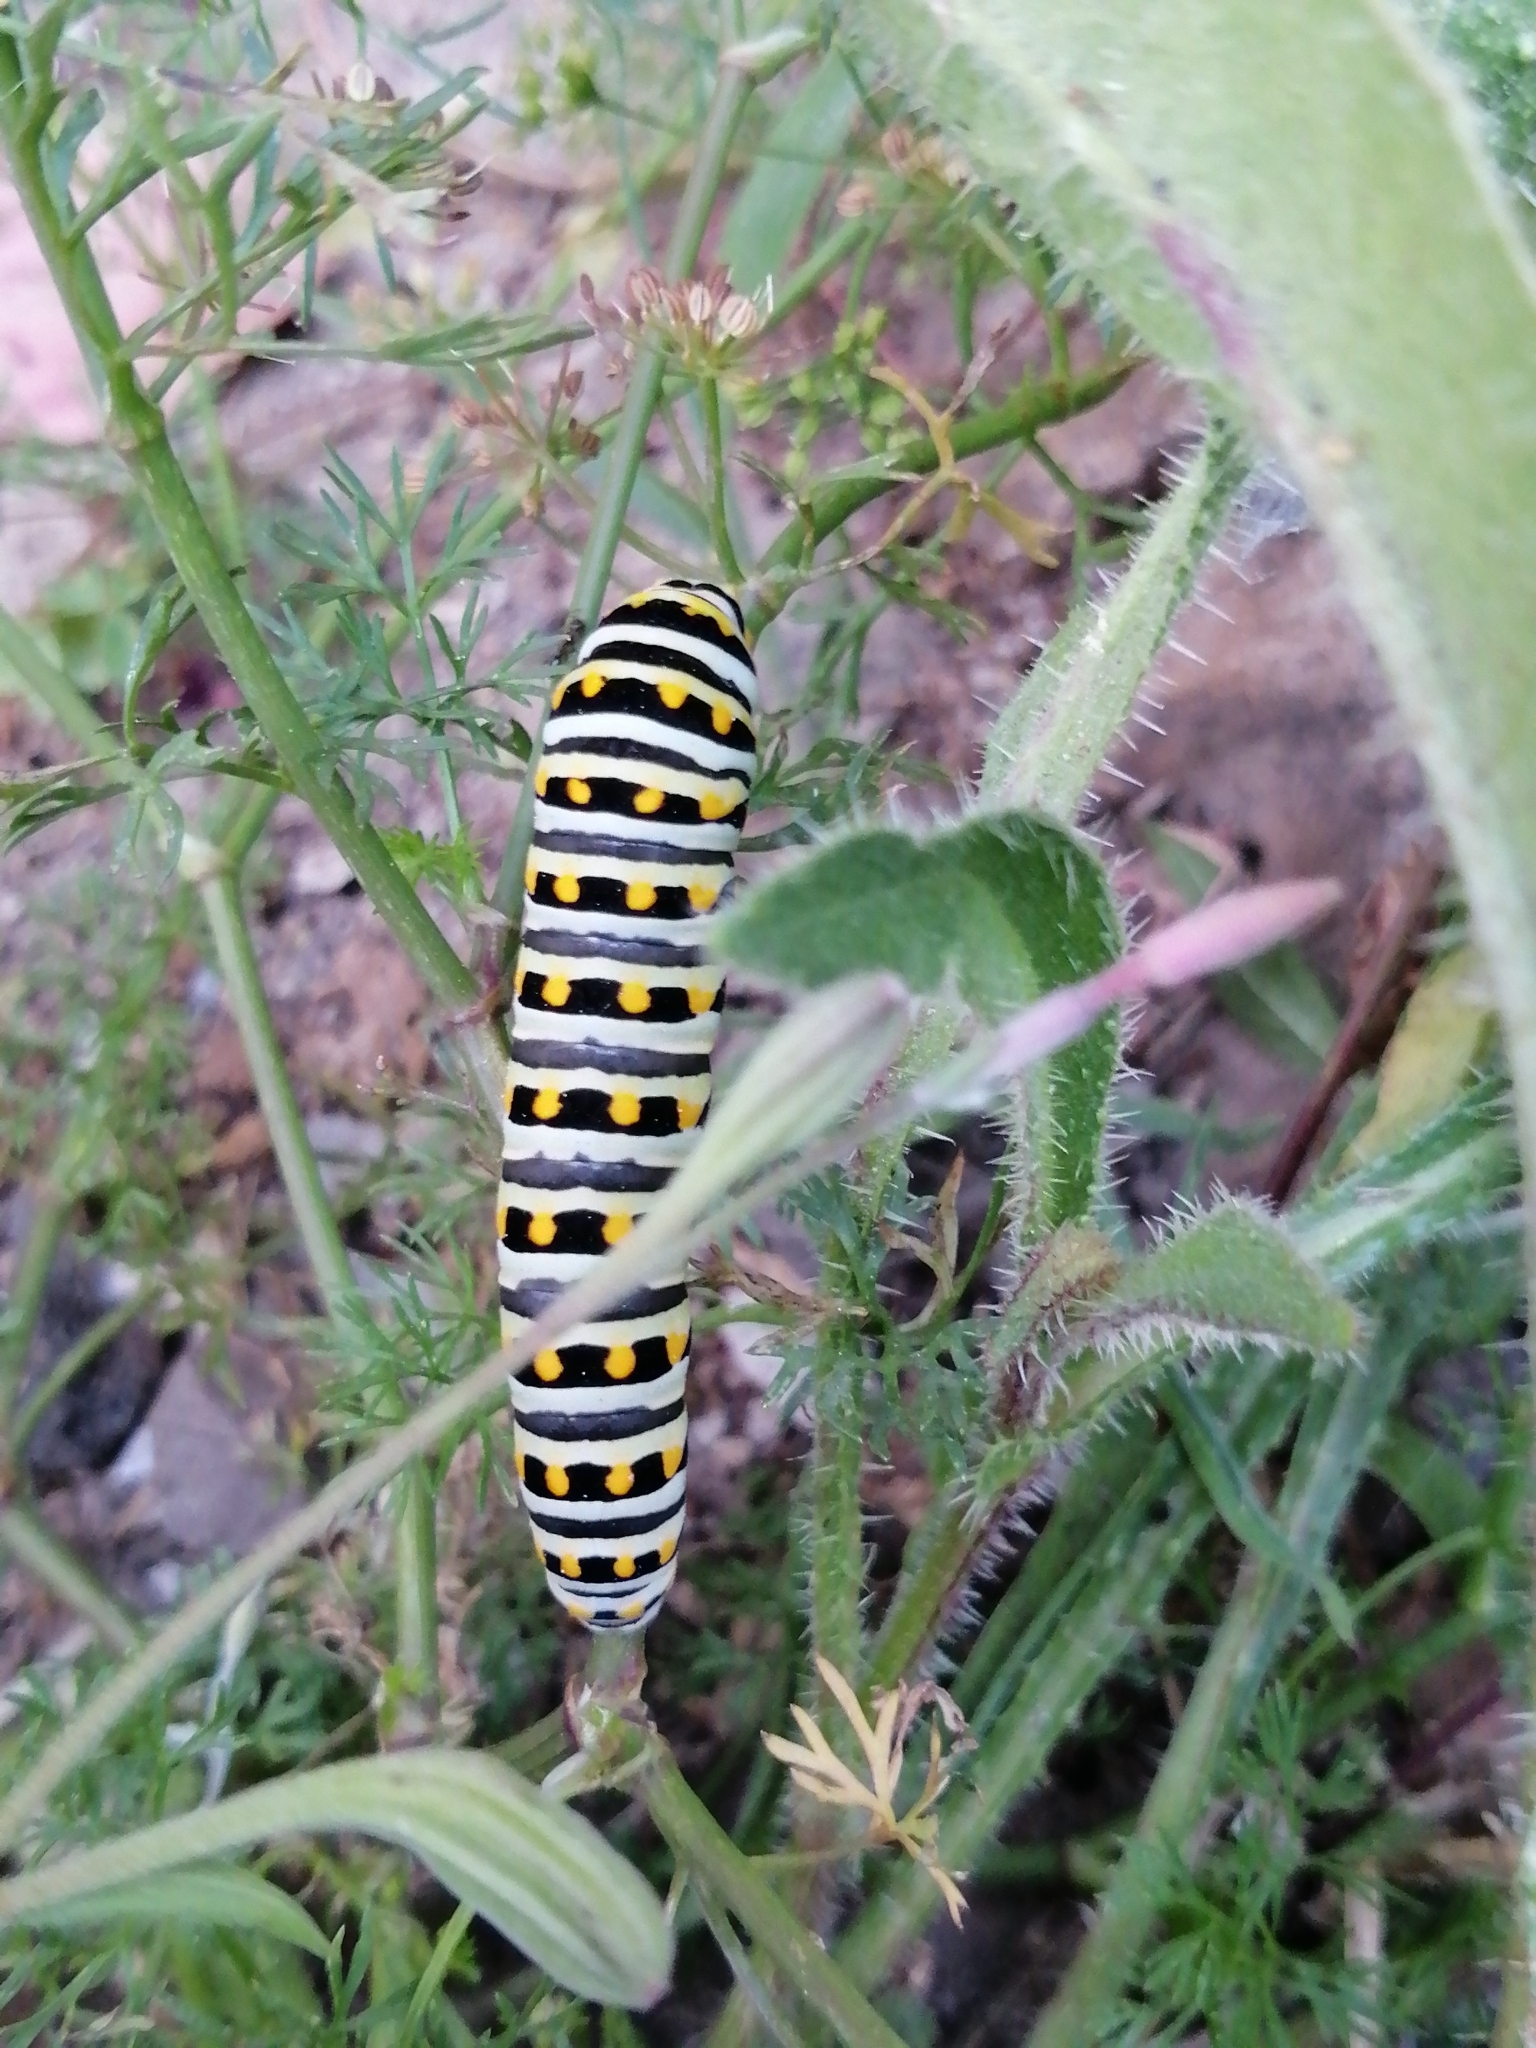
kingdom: Animalia
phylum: Arthropoda
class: Insecta
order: Lepidoptera
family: Papilionidae
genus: Papilio
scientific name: Papilio polyxenes
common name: Black swallowtail
